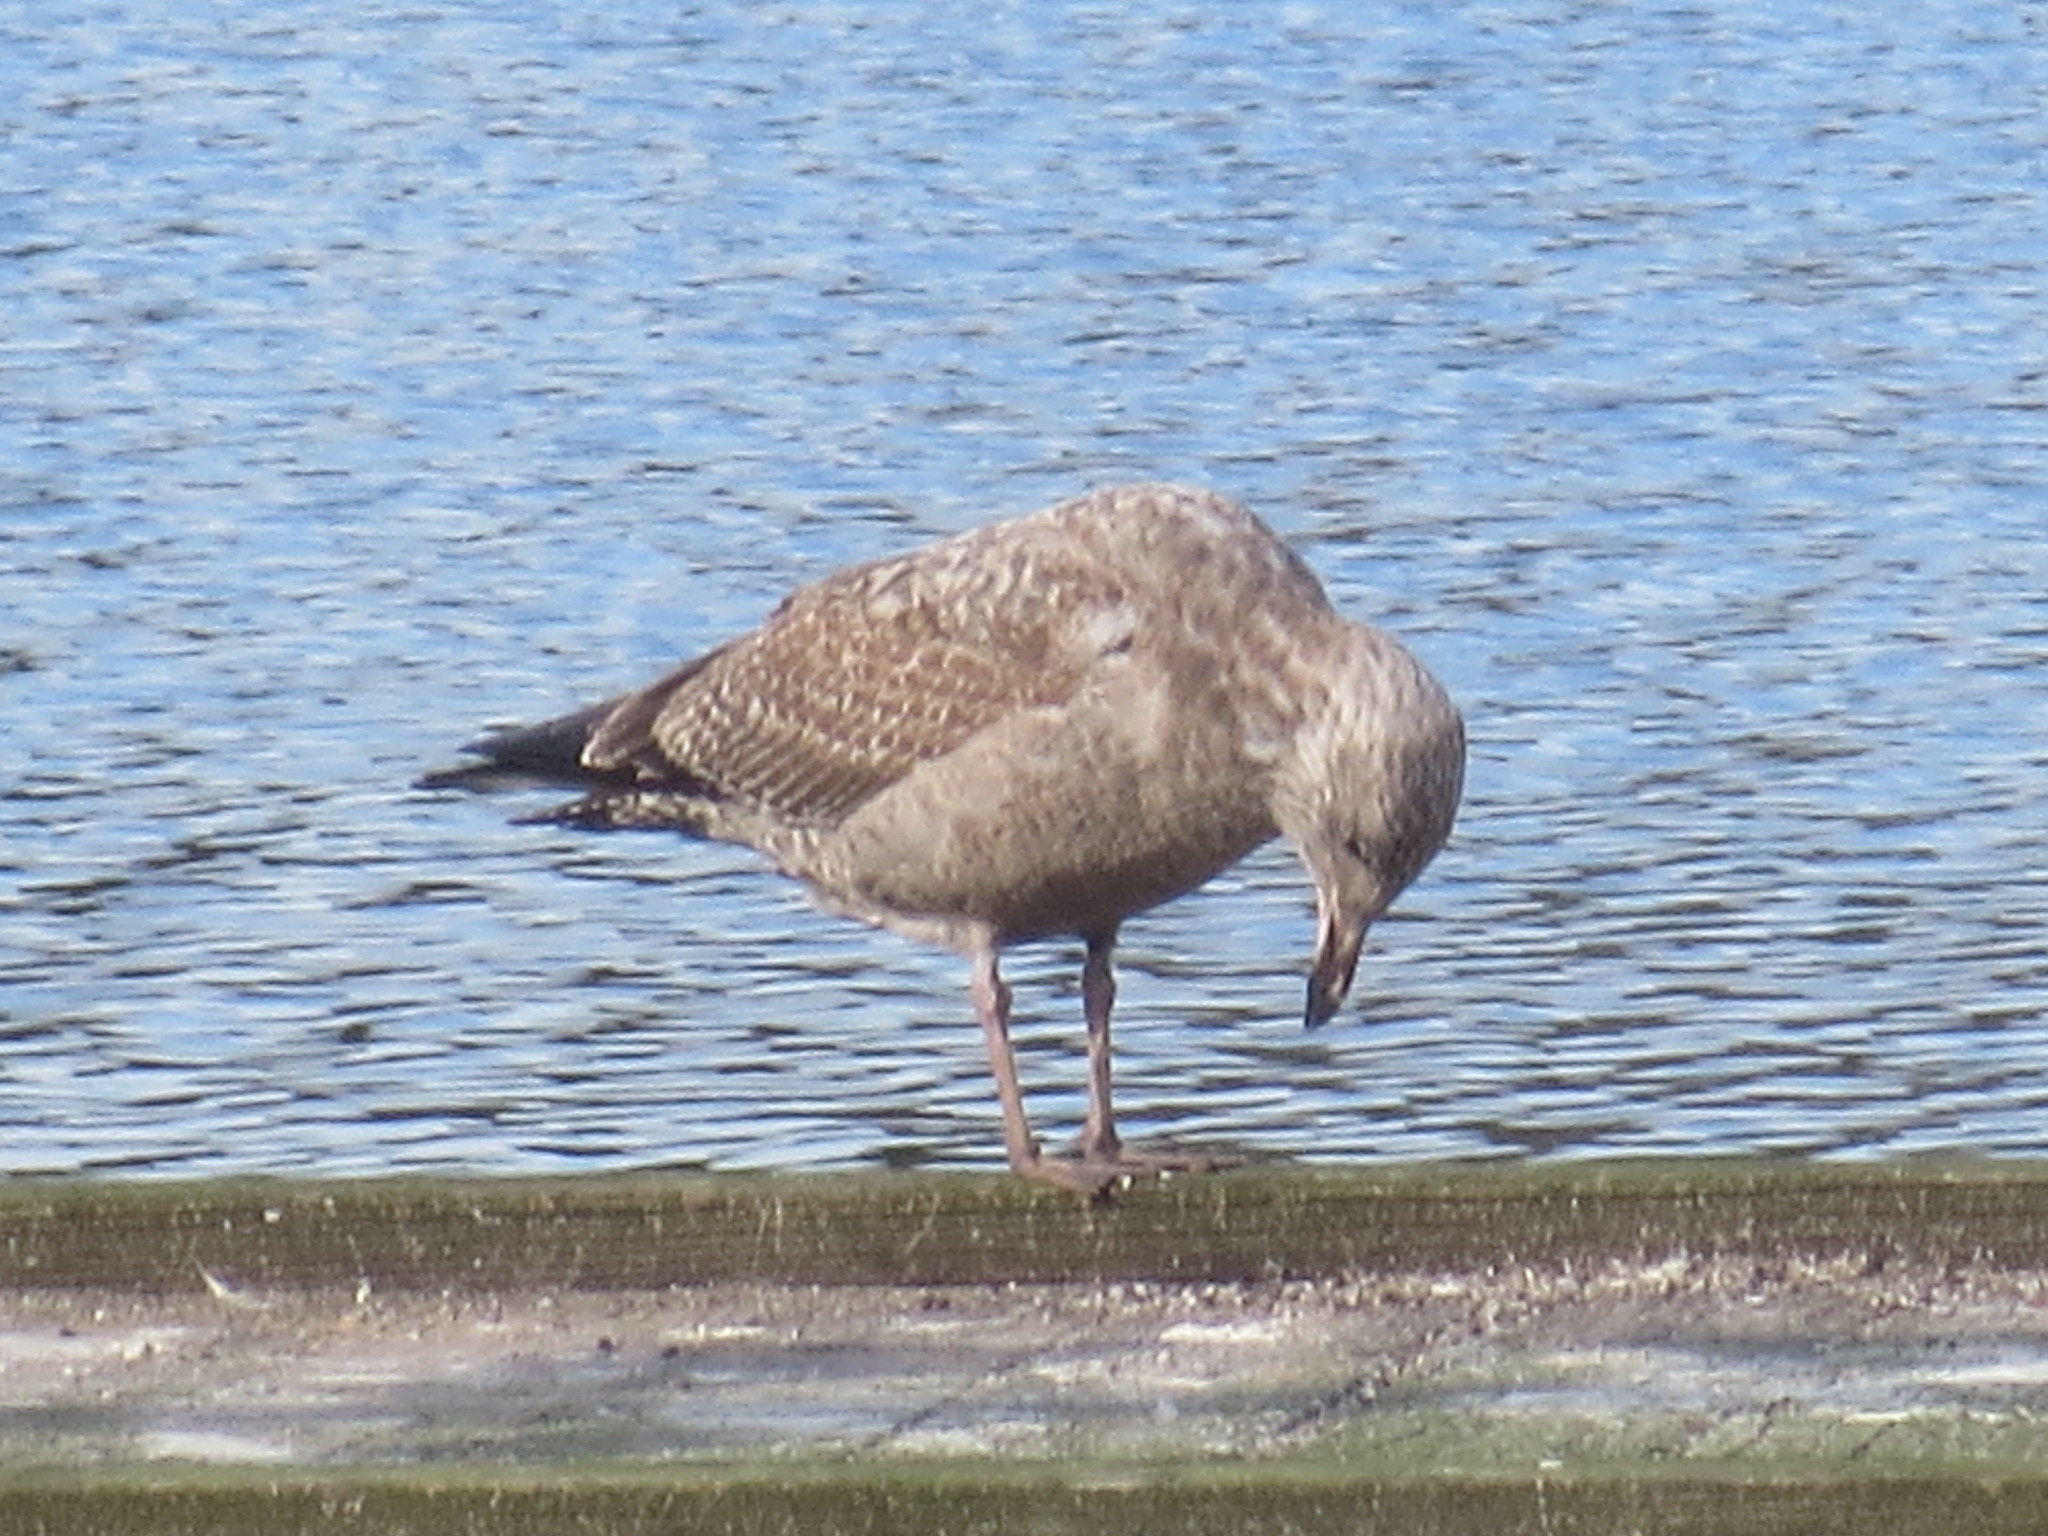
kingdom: Animalia
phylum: Chordata
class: Aves
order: Charadriiformes
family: Laridae
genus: Larus
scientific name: Larus argentatus
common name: Herring gull
